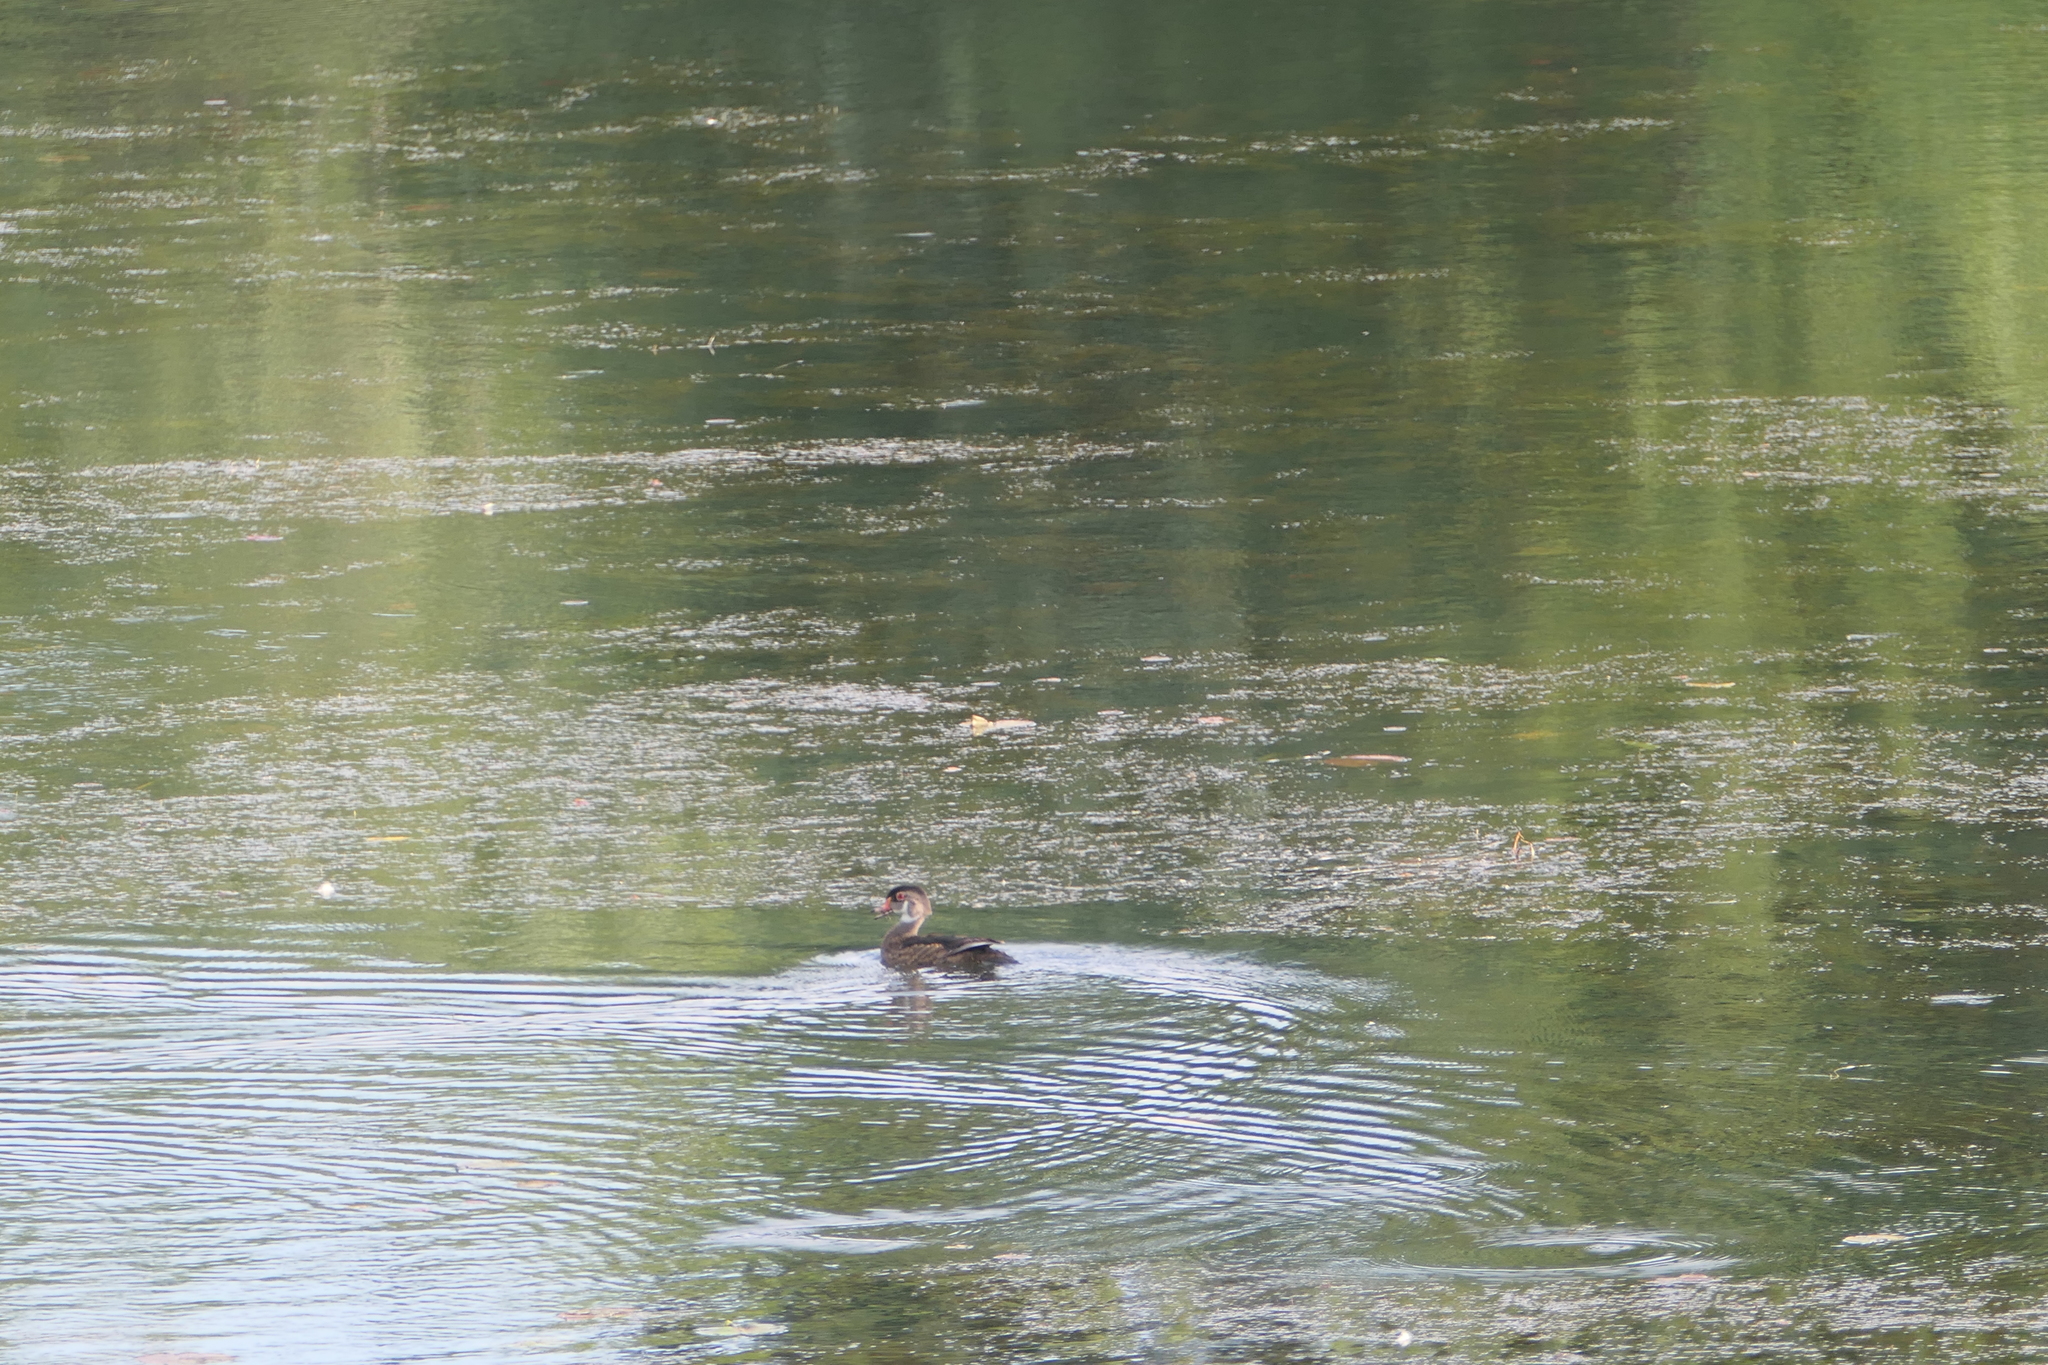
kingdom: Animalia
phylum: Chordata
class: Aves
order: Anseriformes
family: Anatidae
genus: Aix
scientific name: Aix sponsa
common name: Wood duck
